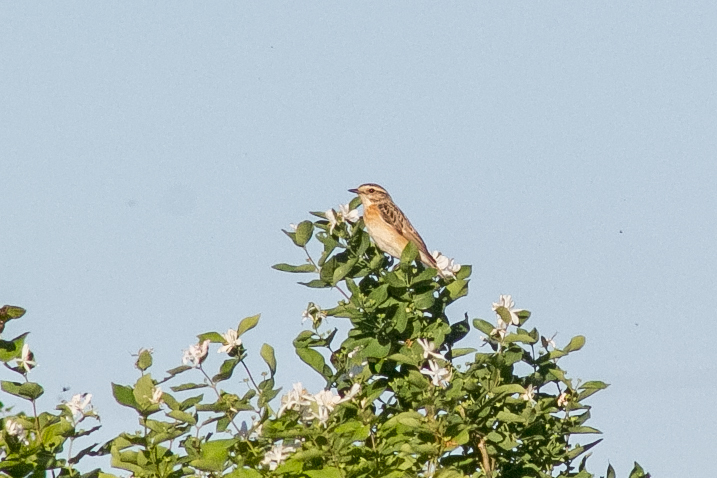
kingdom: Animalia
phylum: Chordata
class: Aves
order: Passeriformes
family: Muscicapidae
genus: Saxicola
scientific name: Saxicola rubetra
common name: Whinchat
